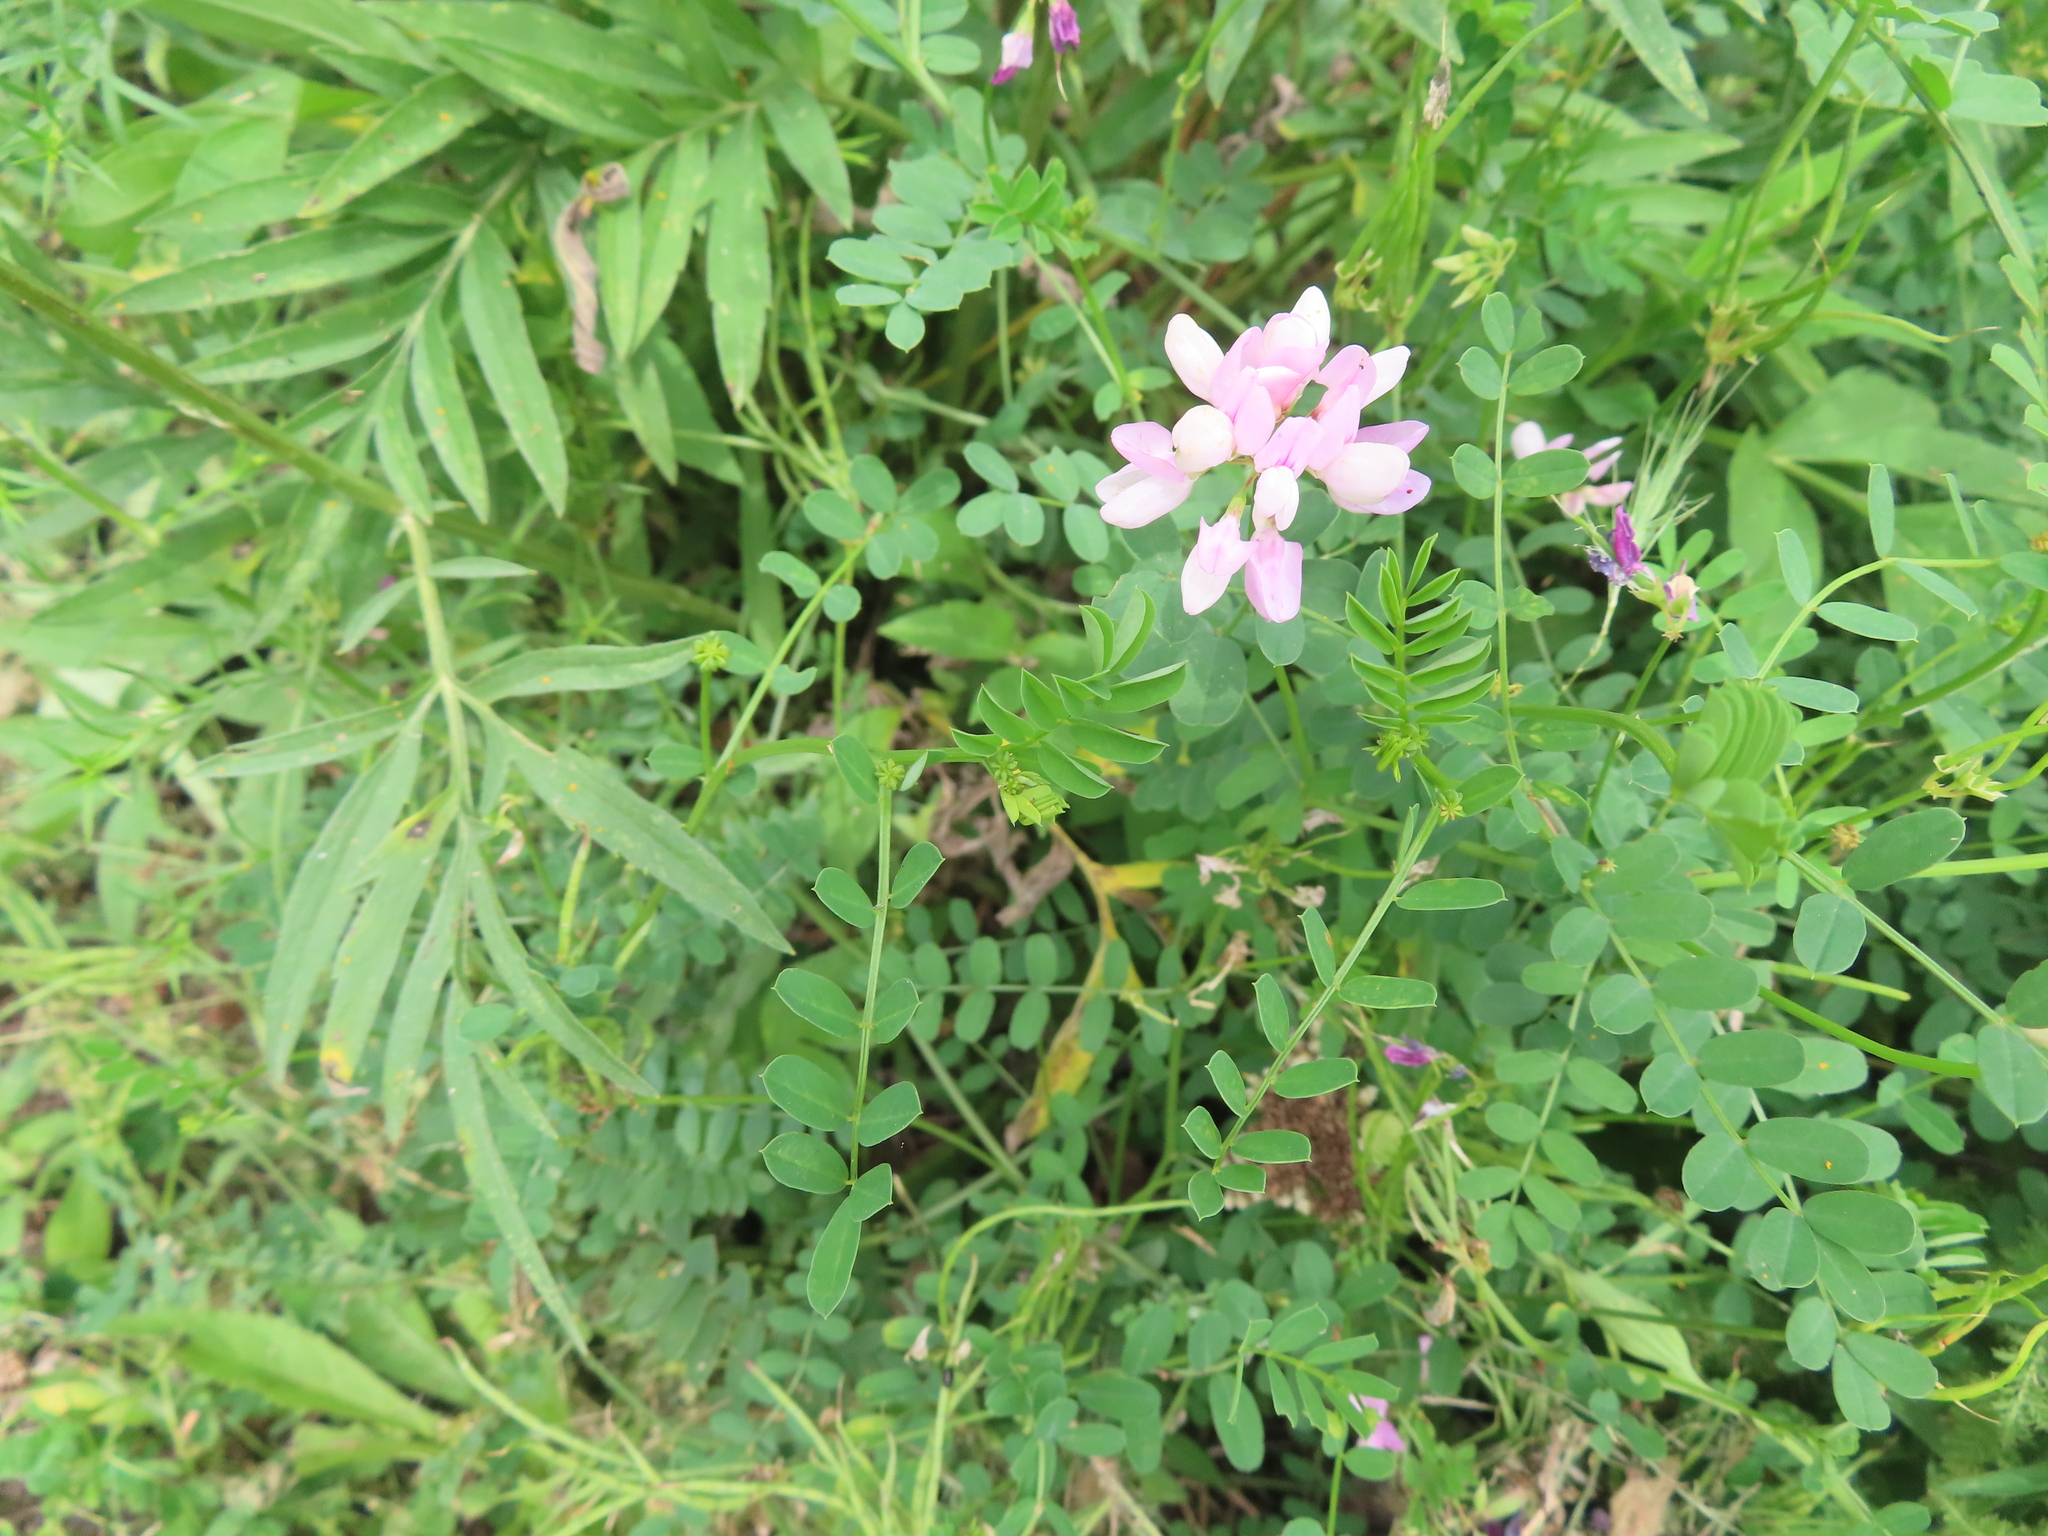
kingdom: Plantae
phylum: Tracheophyta
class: Magnoliopsida
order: Fabales
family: Fabaceae
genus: Coronilla
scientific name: Coronilla varia
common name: Crownvetch
